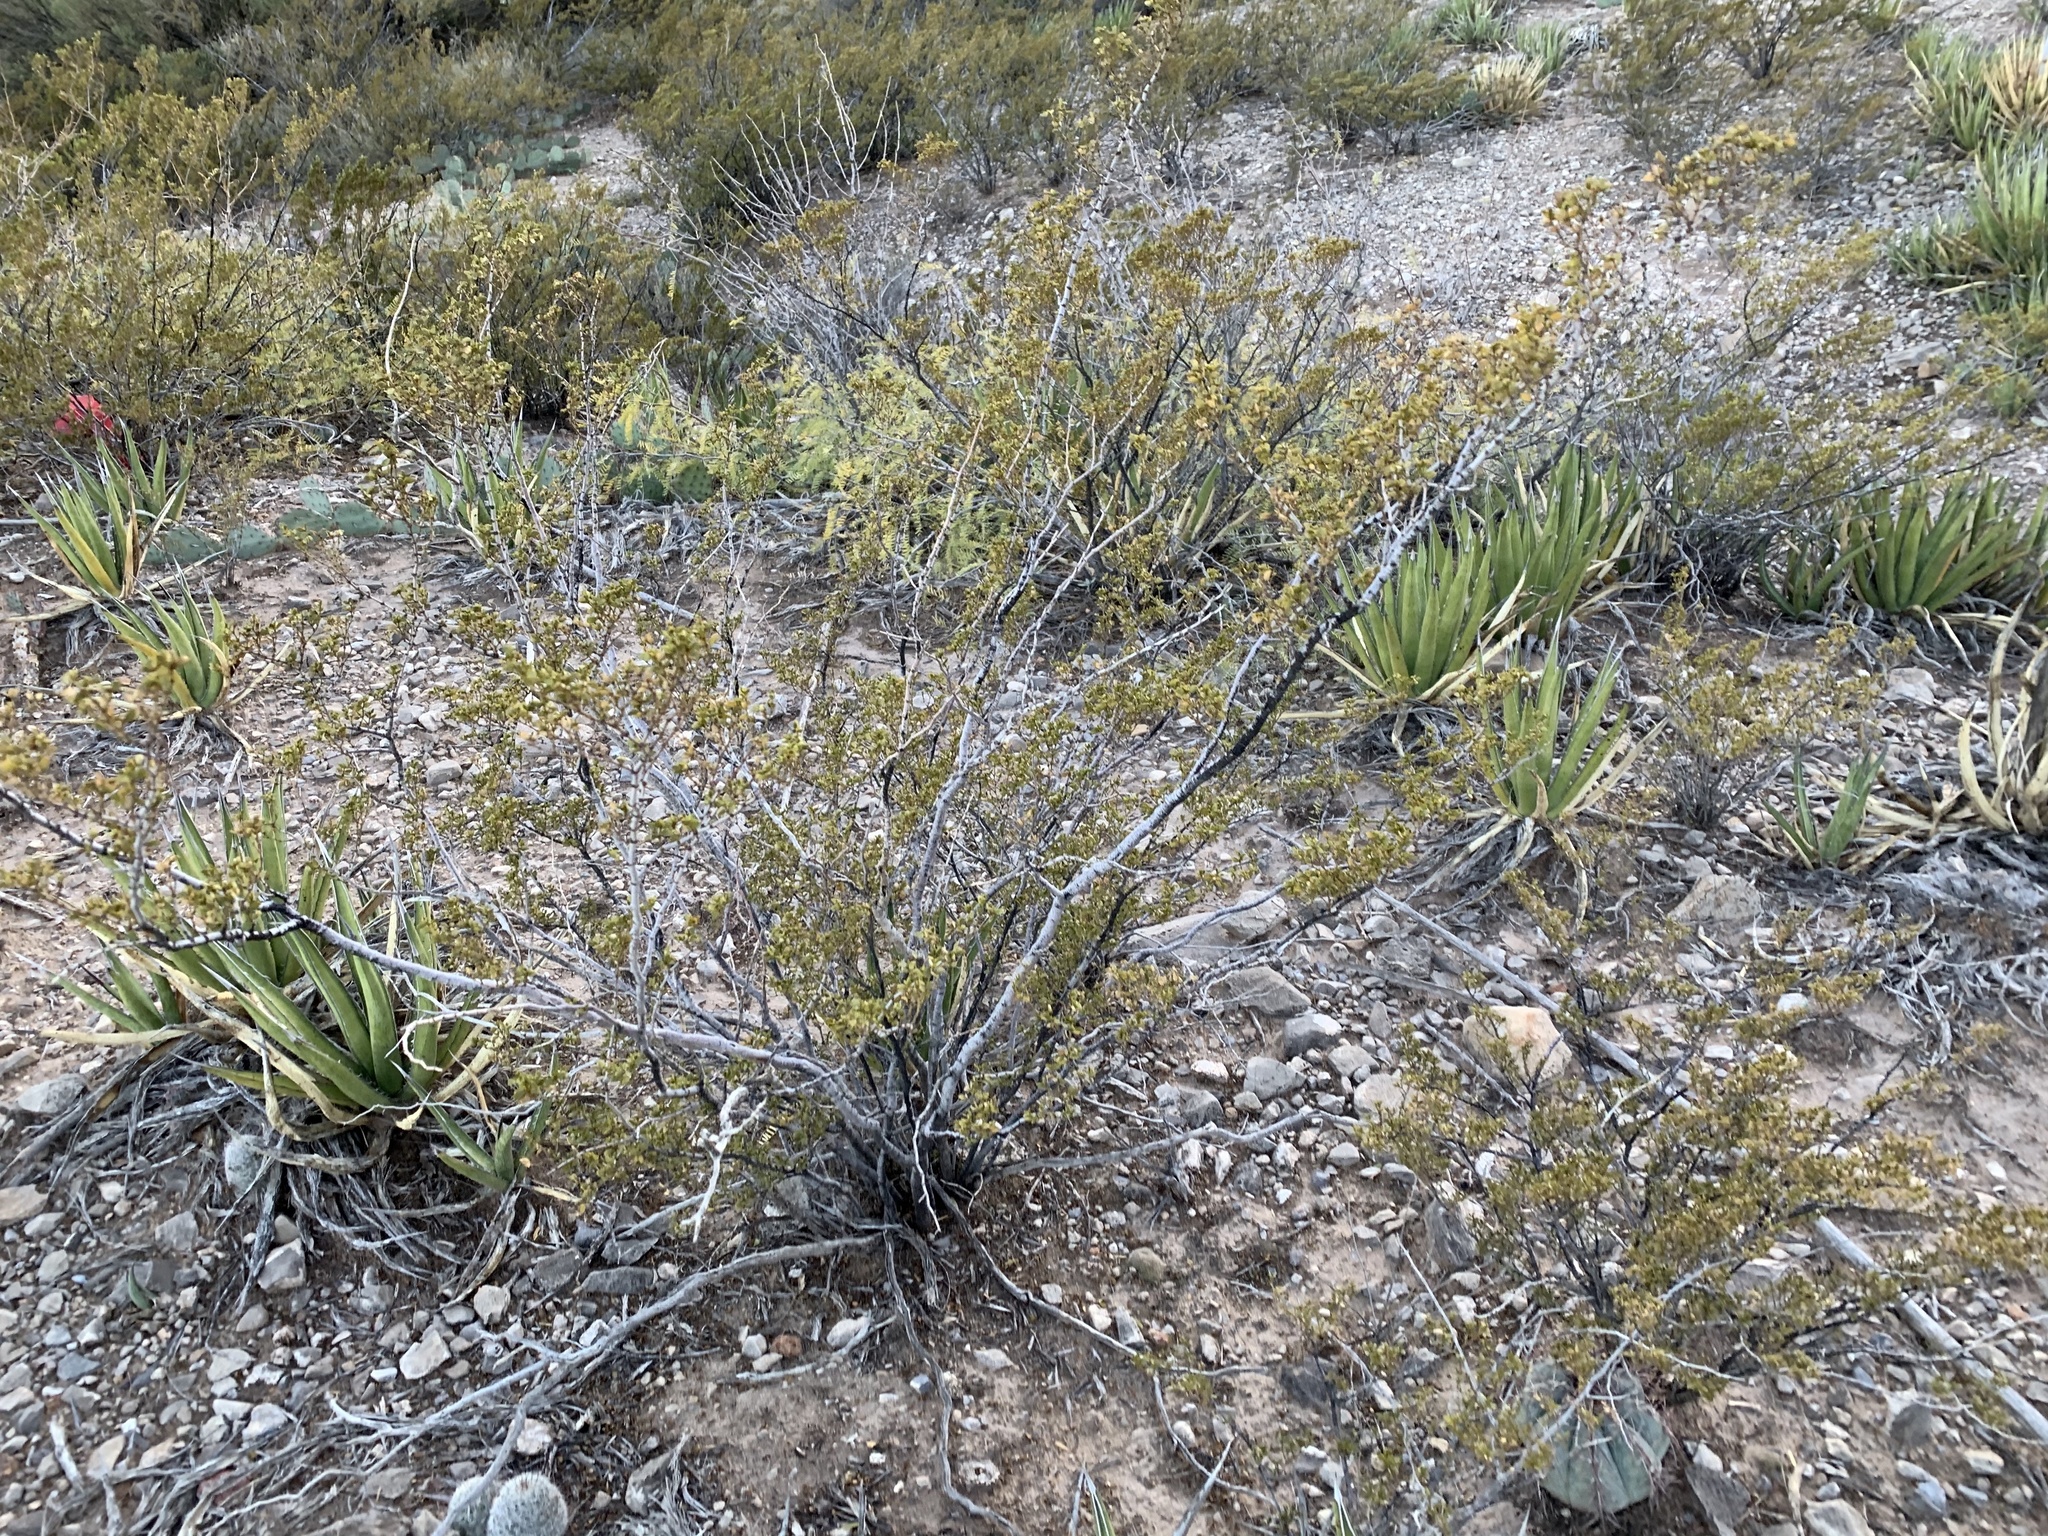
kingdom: Plantae
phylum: Tracheophyta
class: Magnoliopsida
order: Zygophyllales
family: Zygophyllaceae
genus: Larrea
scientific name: Larrea tridentata
